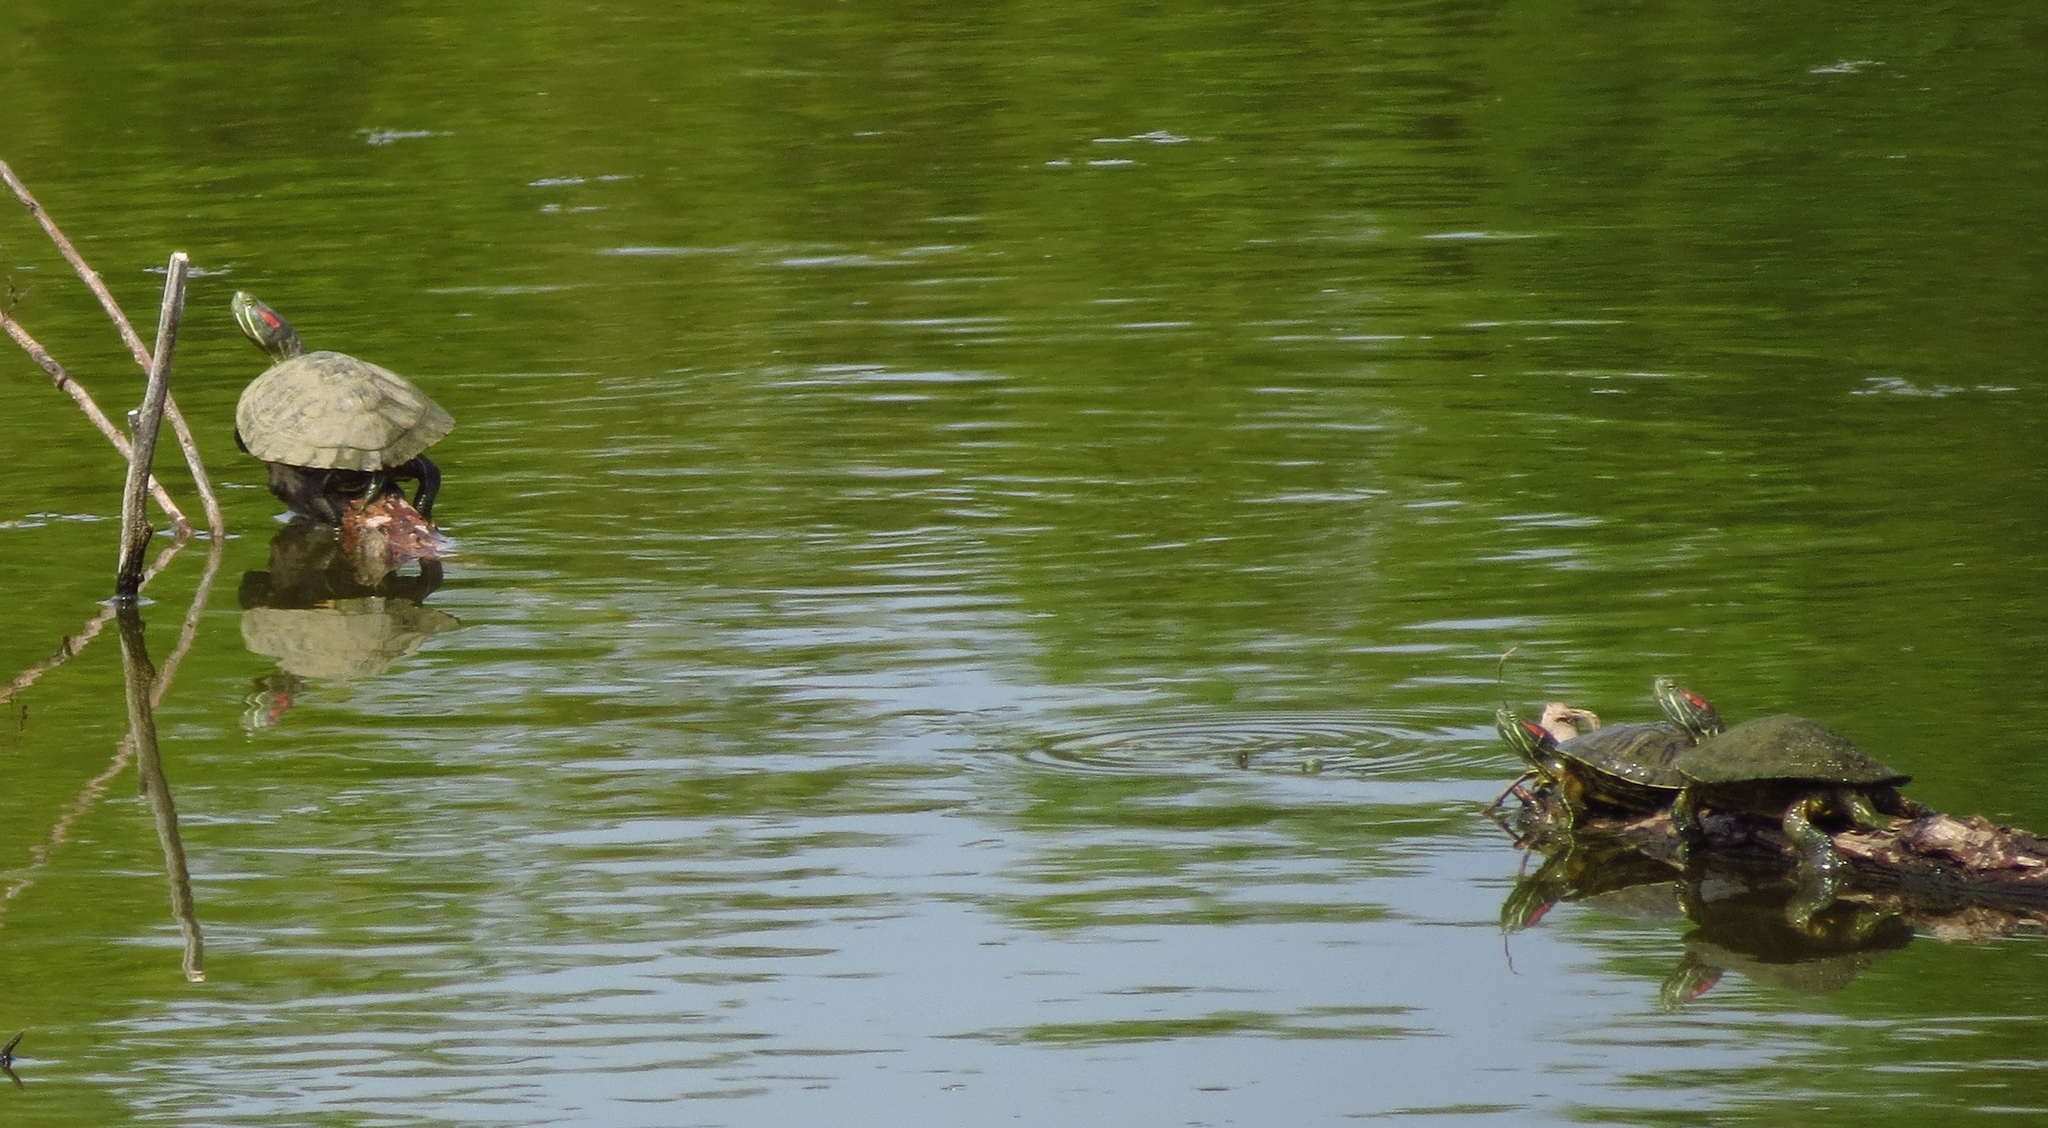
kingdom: Animalia
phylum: Chordata
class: Testudines
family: Emydidae
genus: Trachemys
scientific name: Trachemys scripta
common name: Slider
